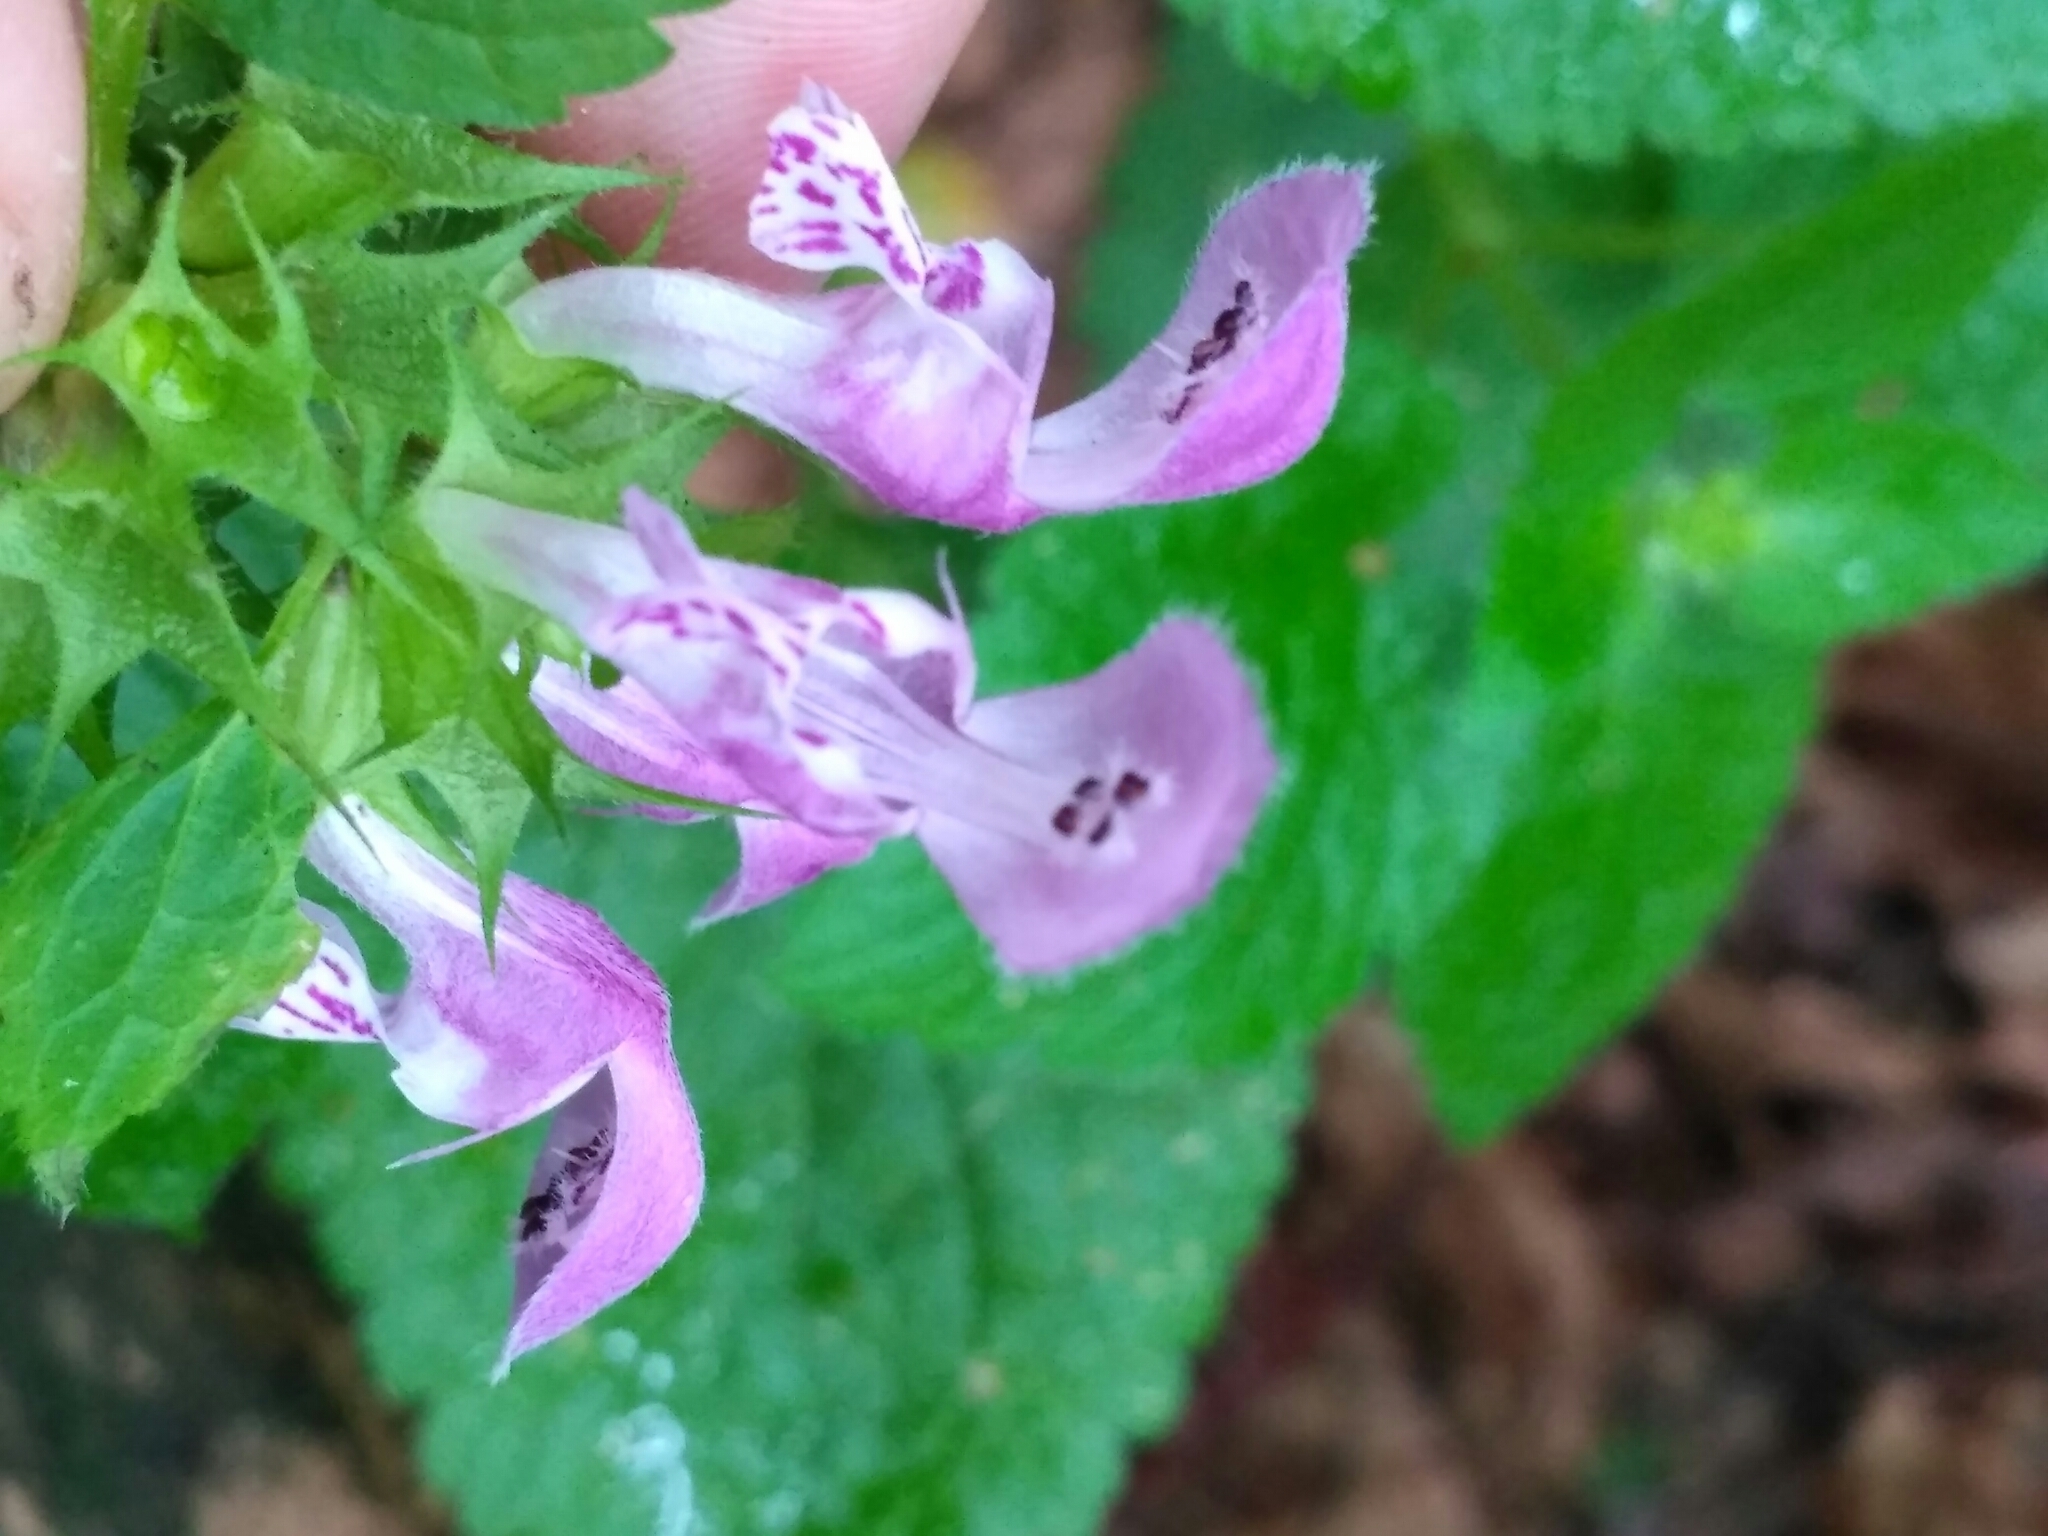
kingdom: Plantae
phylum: Tracheophyta
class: Magnoliopsida
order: Lamiales
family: Lamiaceae
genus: Lamium
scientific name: Lamium maculatum
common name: Spotted dead-nettle
